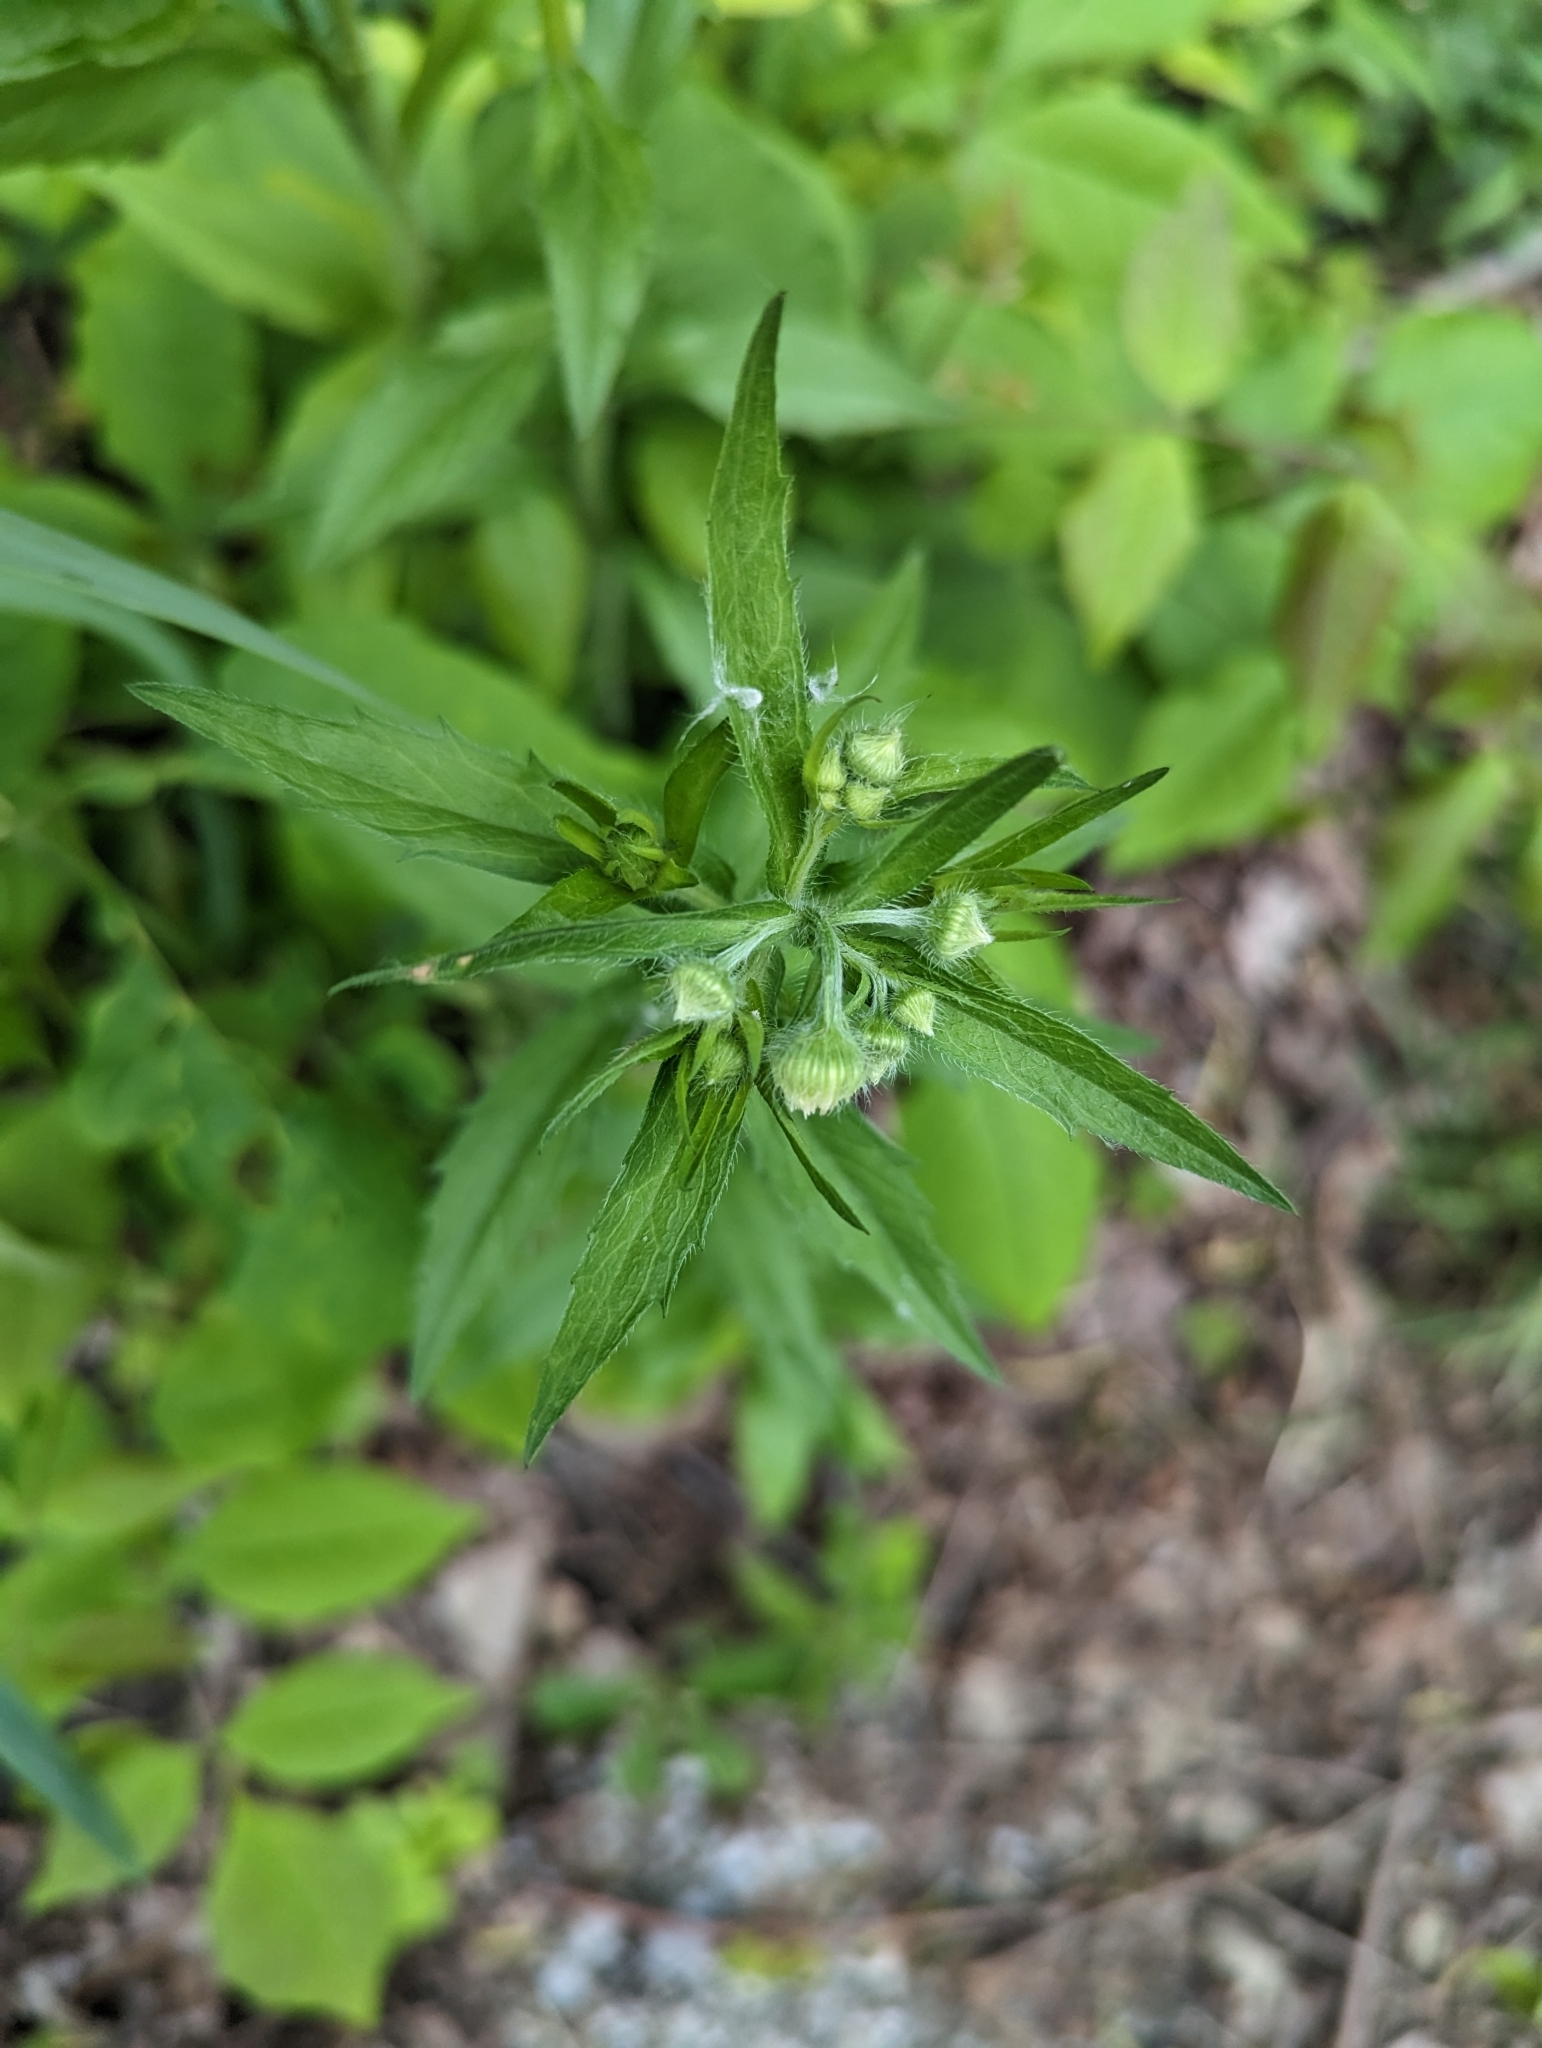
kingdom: Plantae
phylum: Tracheophyta
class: Magnoliopsida
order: Asterales
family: Asteraceae
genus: Erigeron
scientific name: Erigeron annuus
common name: Tall fleabane
